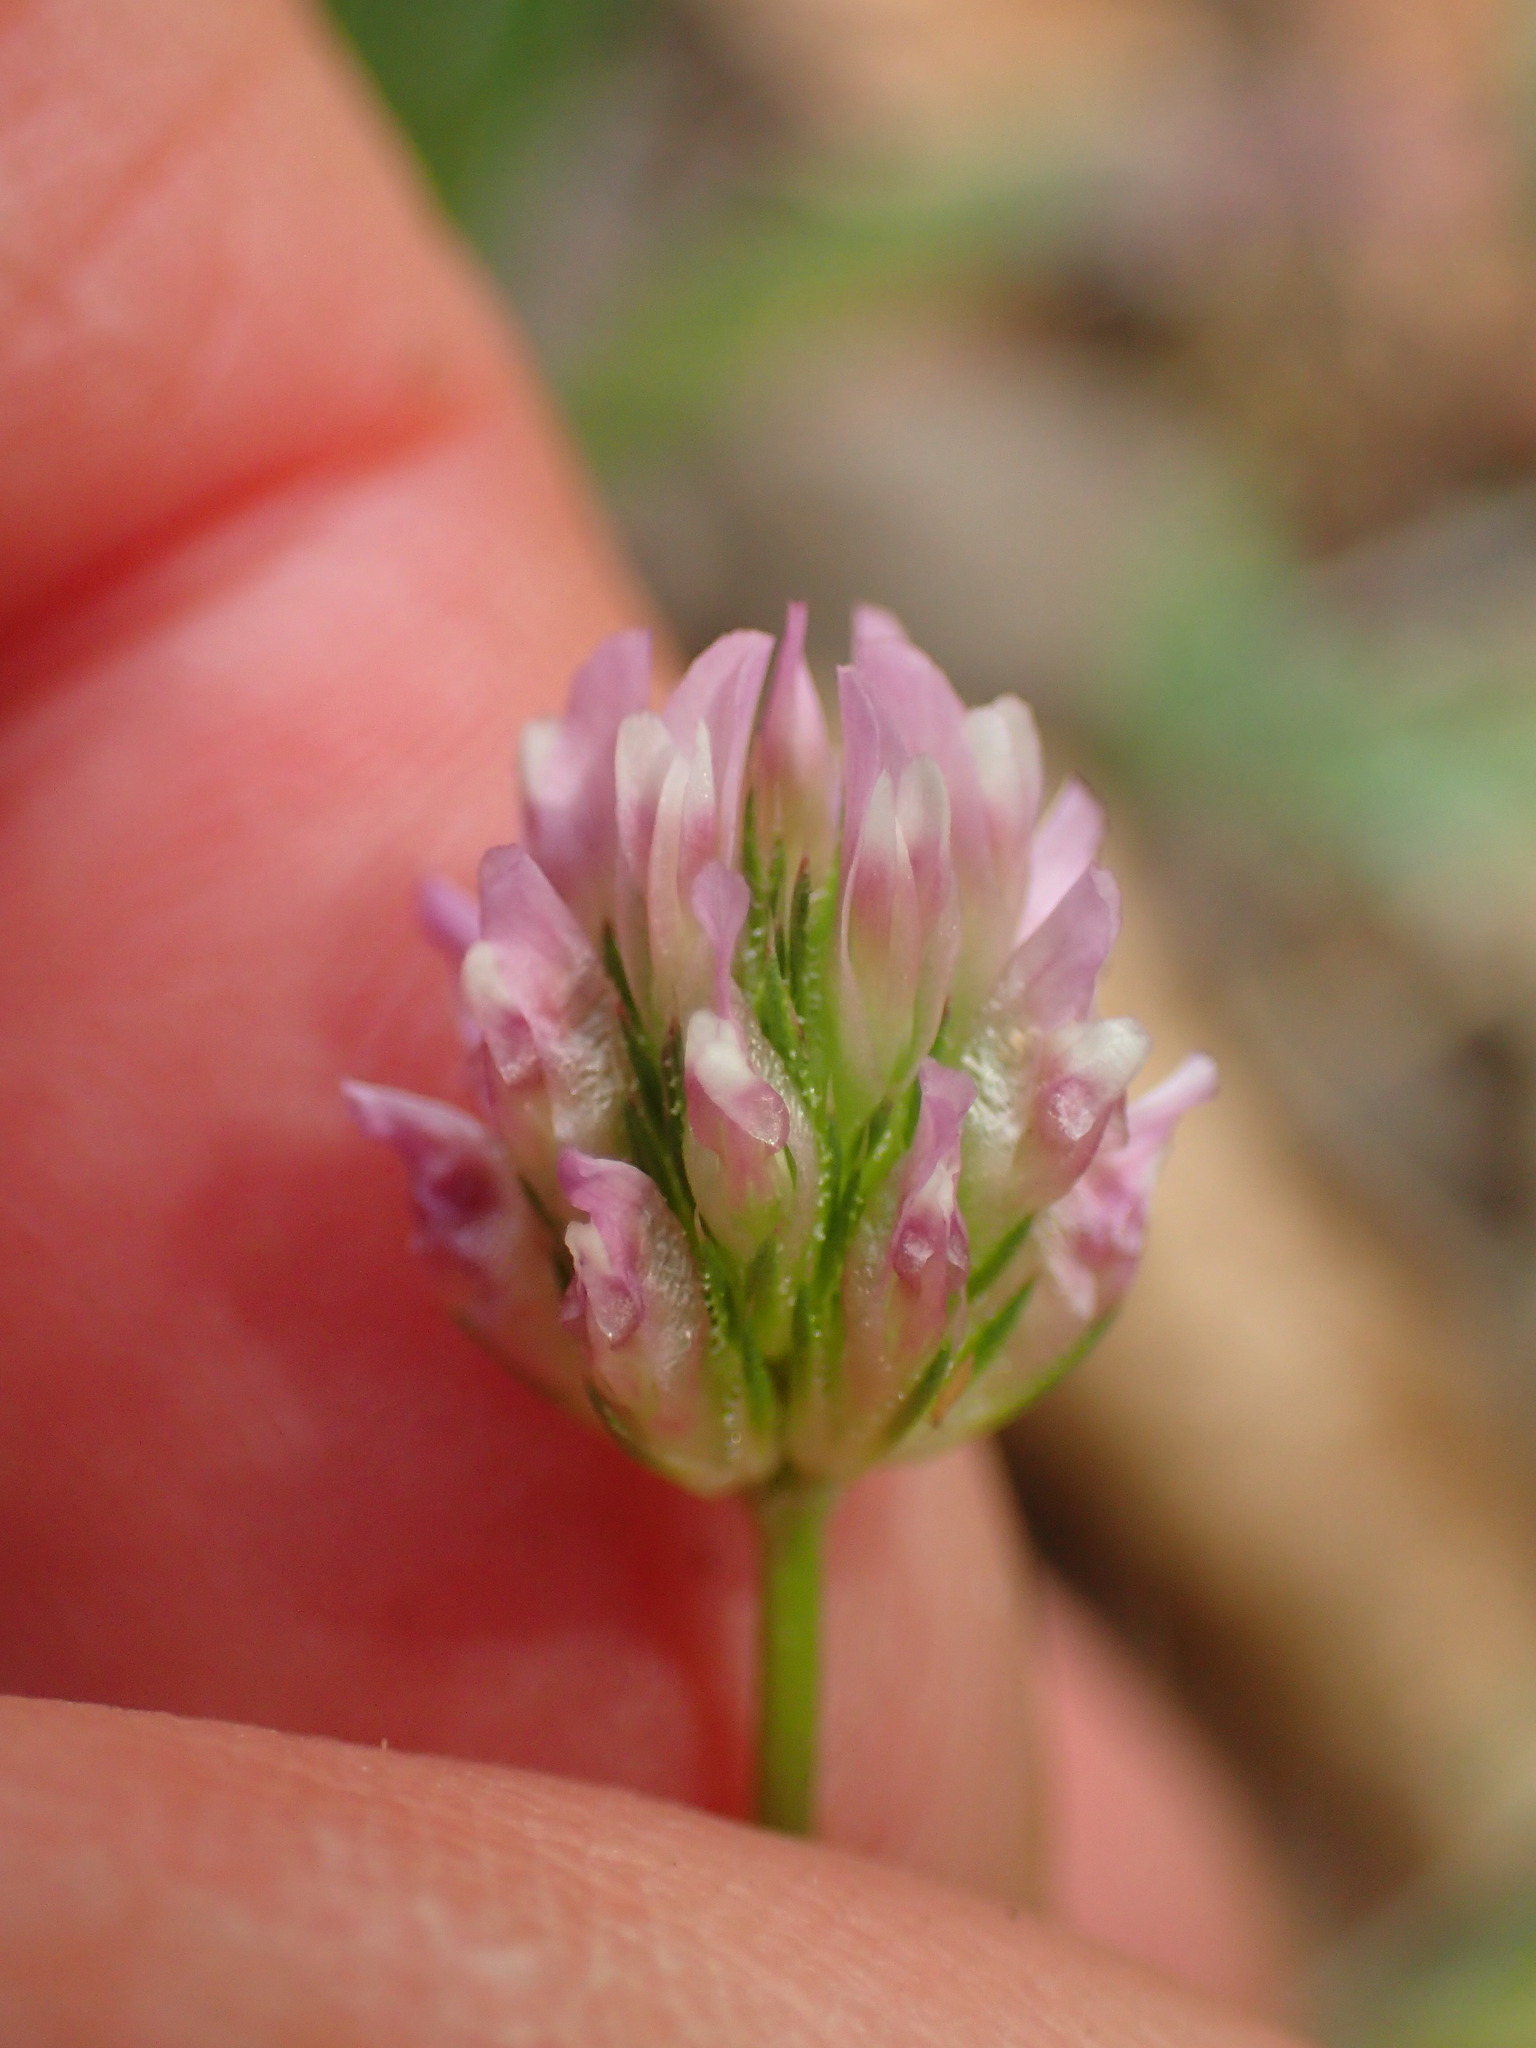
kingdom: Plantae
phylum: Tracheophyta
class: Magnoliopsida
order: Fabales
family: Fabaceae
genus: Trifolium
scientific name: Trifolium ciliolatum
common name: Foothill clover
